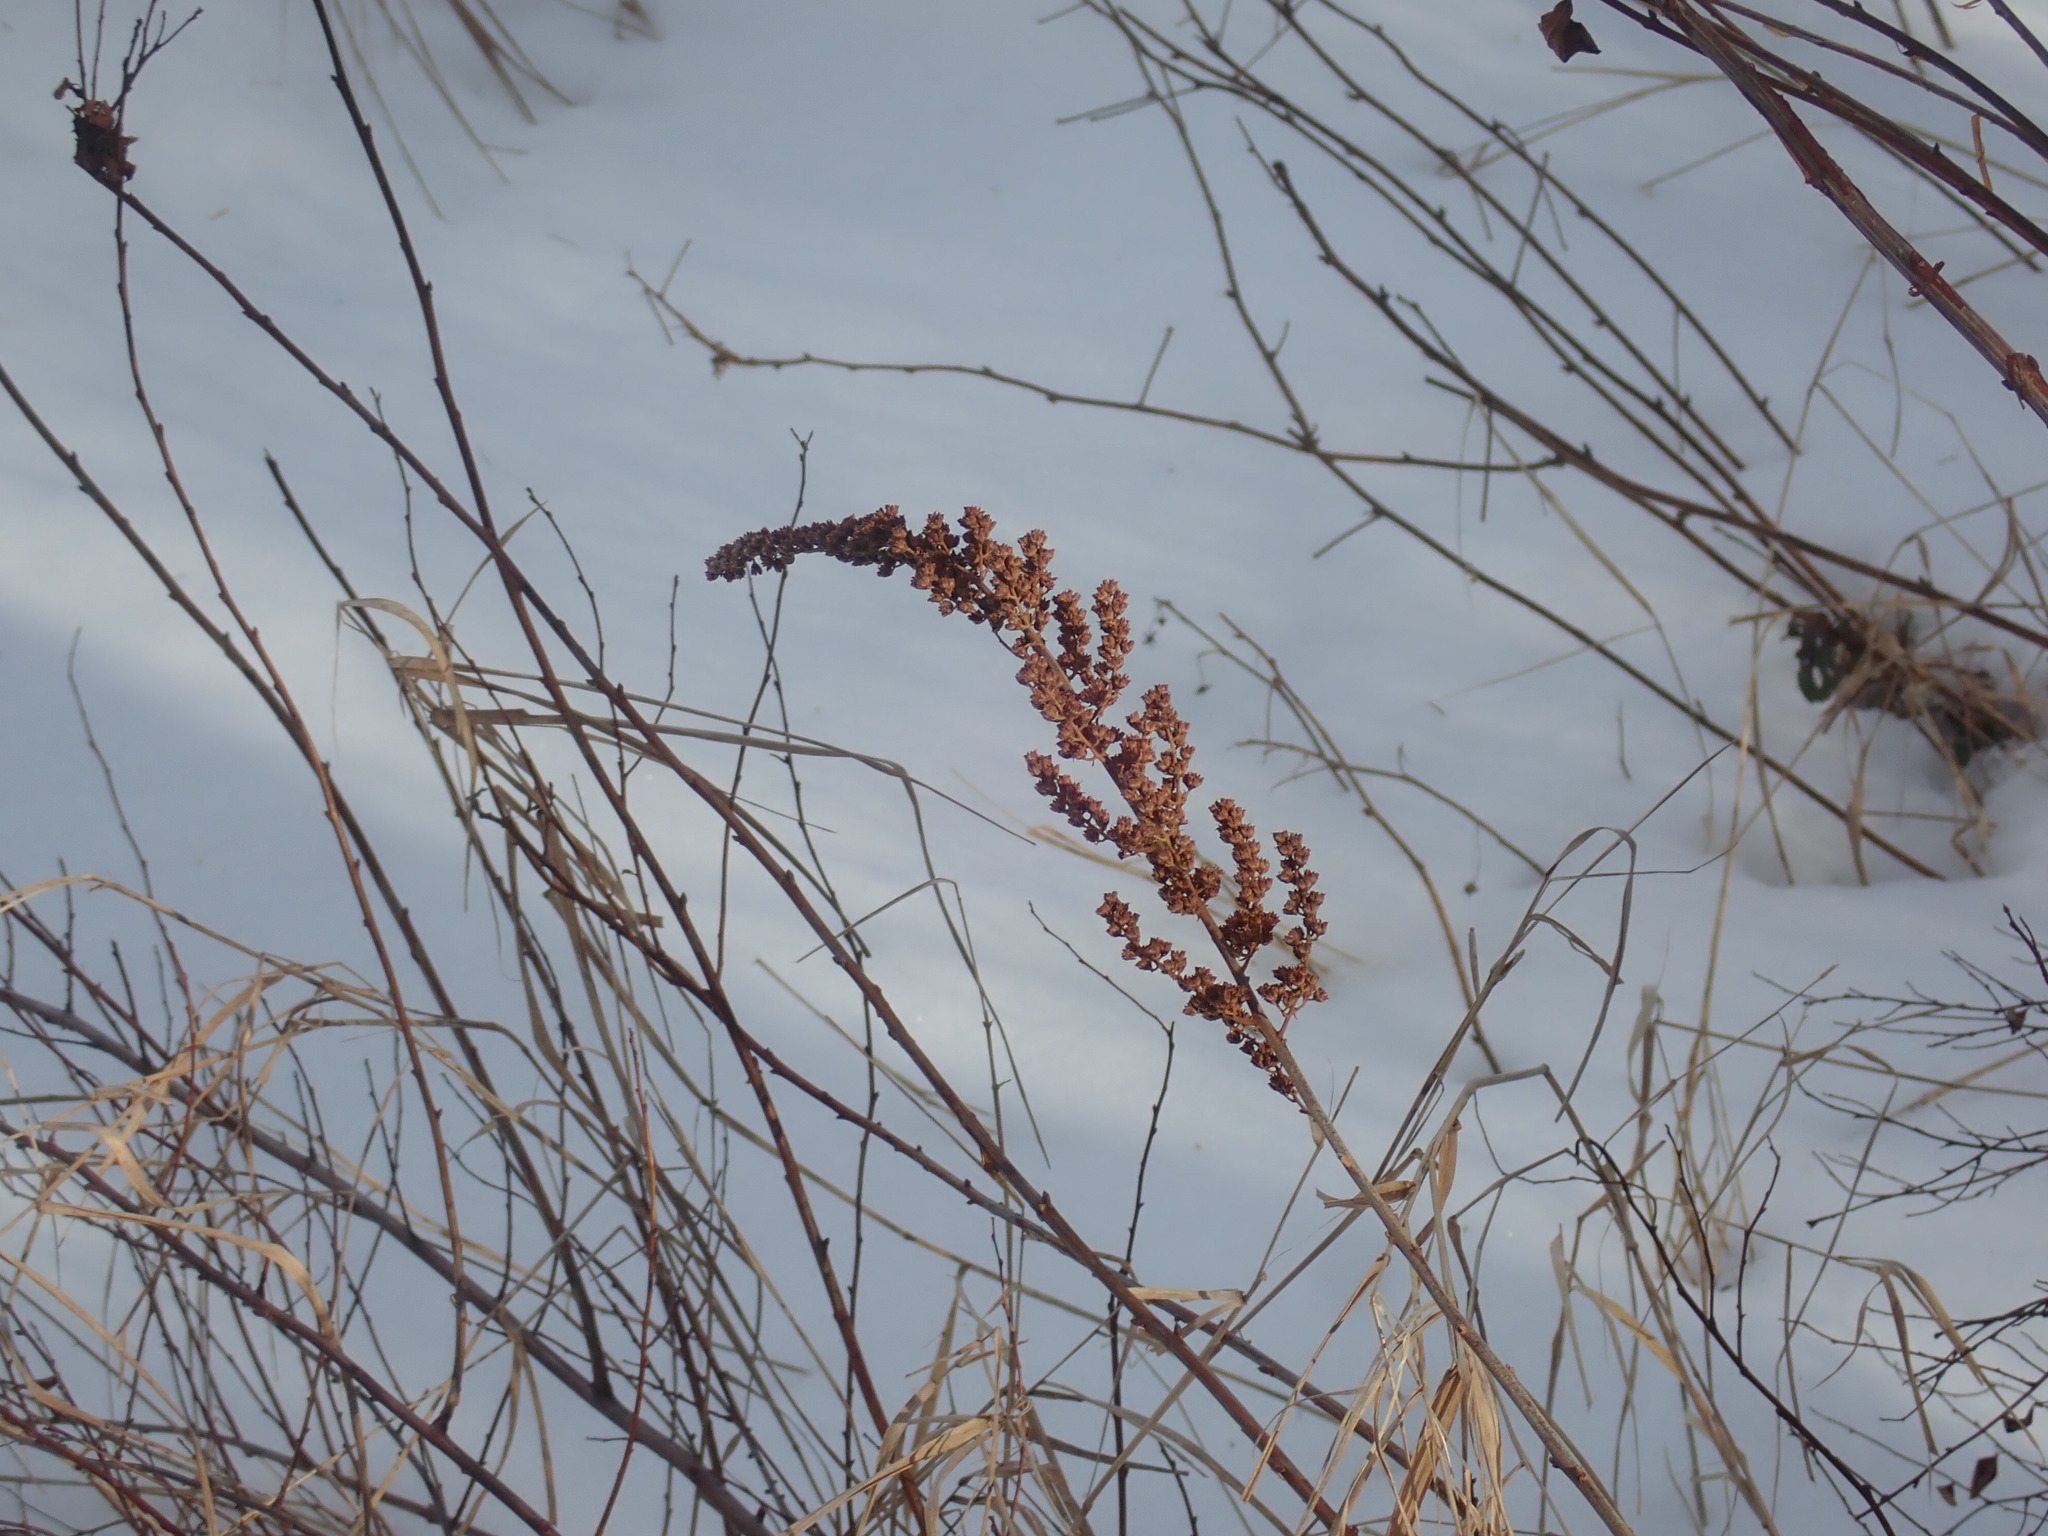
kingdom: Plantae
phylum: Tracheophyta
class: Magnoliopsida
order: Rosales
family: Rosaceae
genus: Spiraea
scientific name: Spiraea tomentosa
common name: Hardhack
